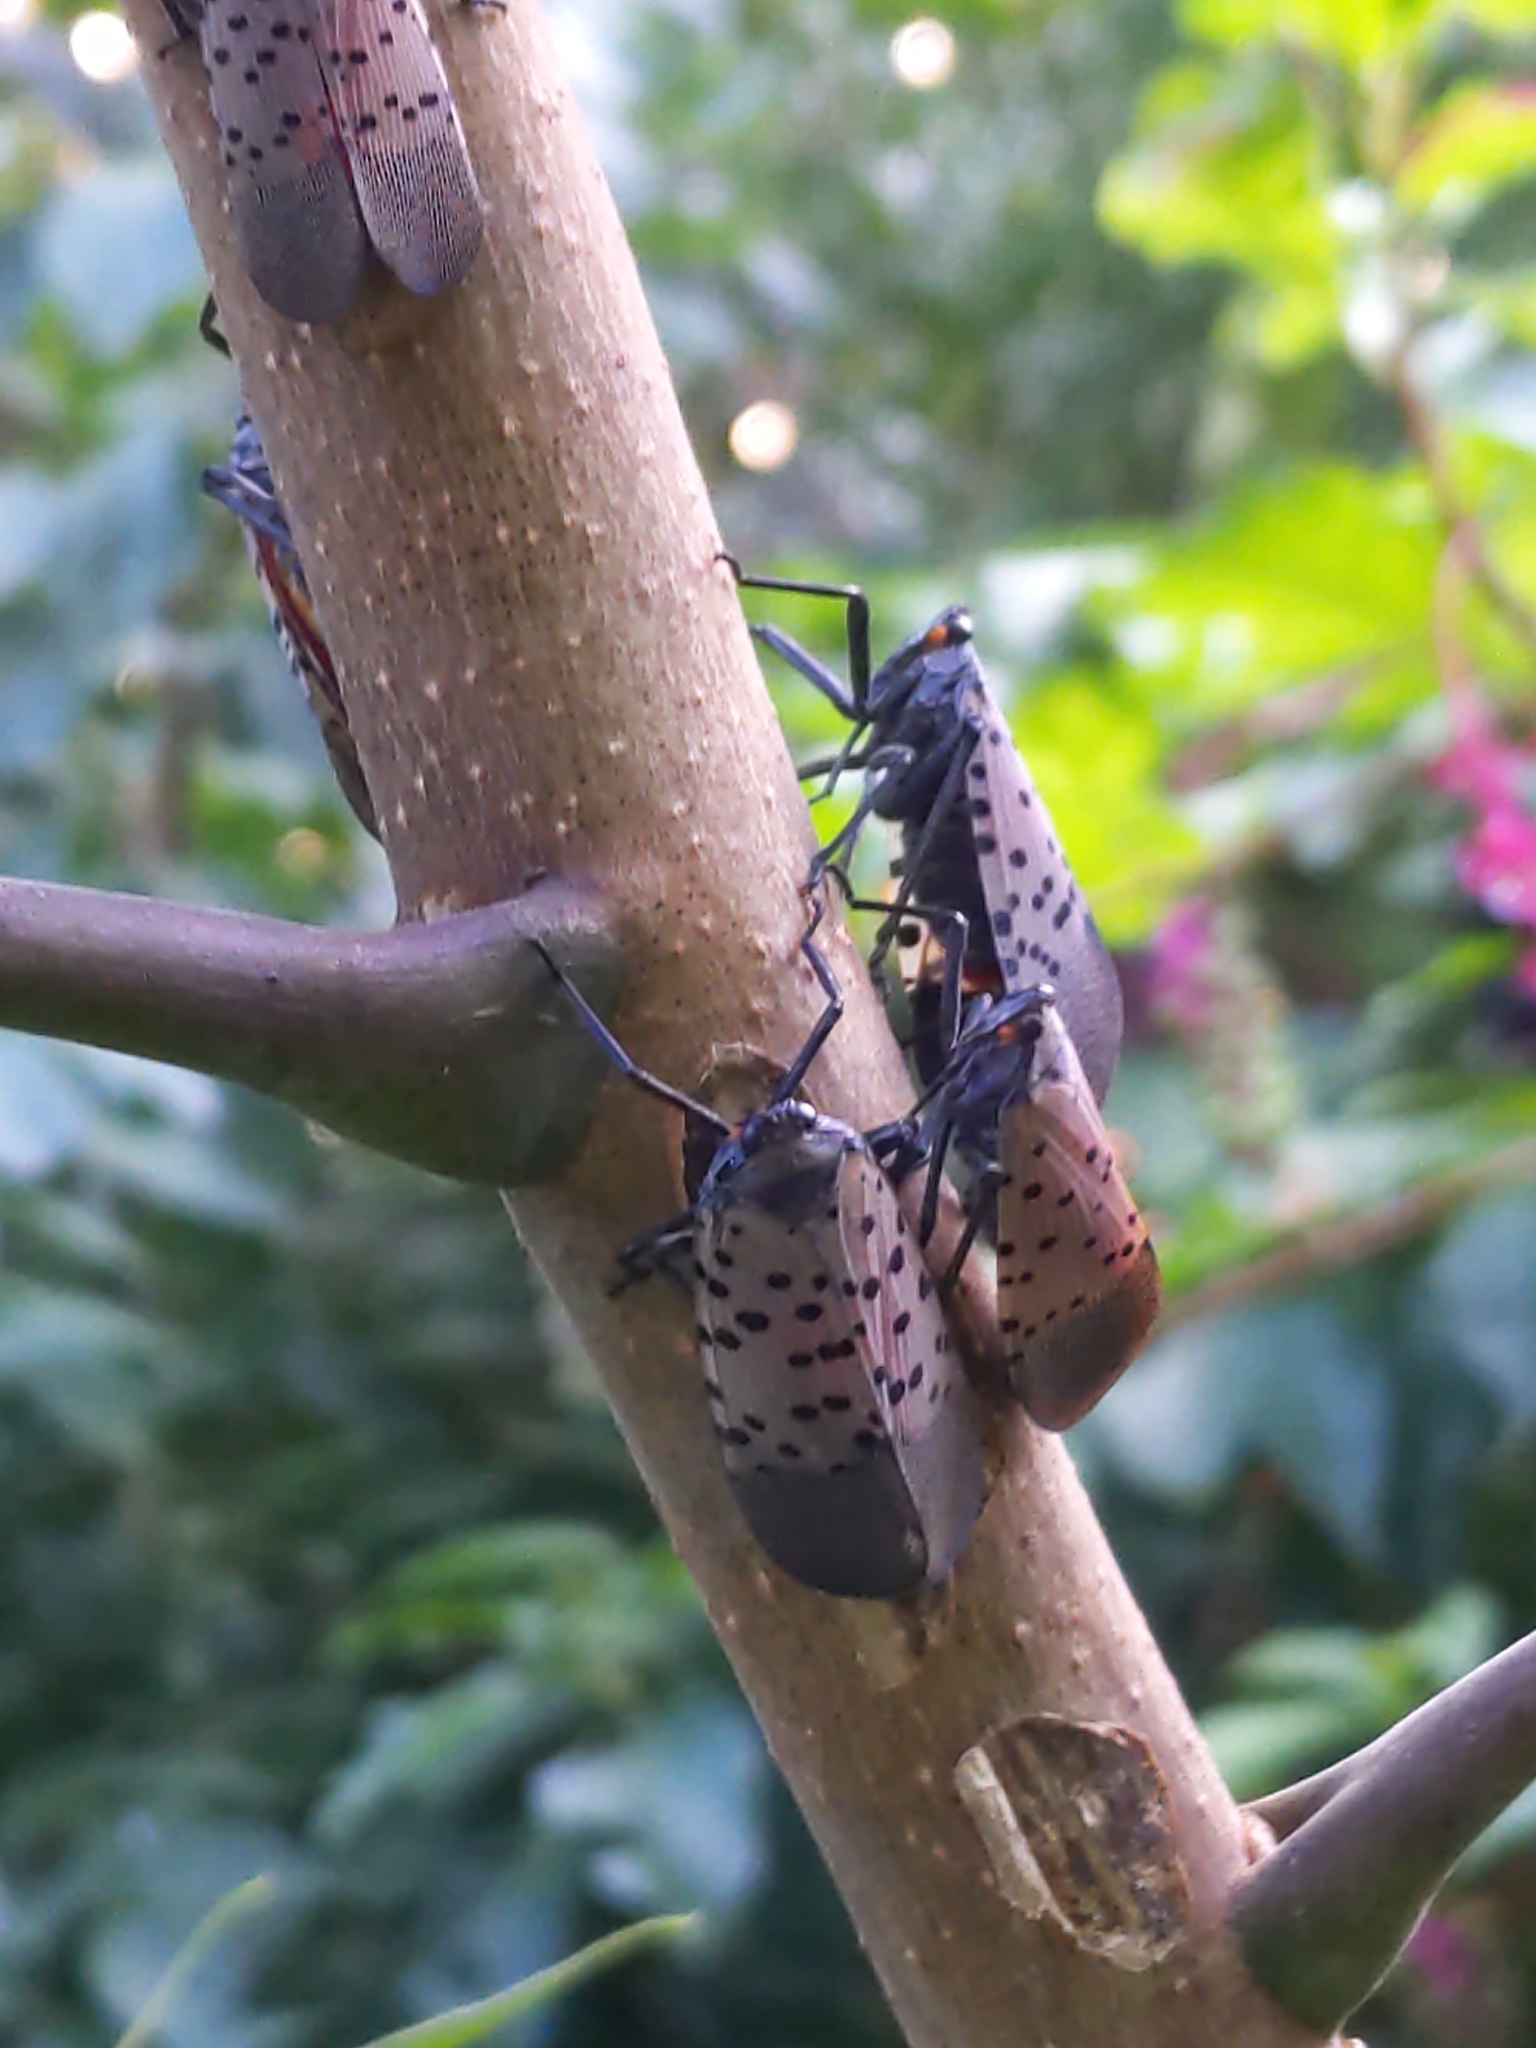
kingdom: Animalia
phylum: Arthropoda
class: Insecta
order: Hemiptera
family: Fulgoridae
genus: Lycorma
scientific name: Lycorma delicatula
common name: Spotted lanternfly
